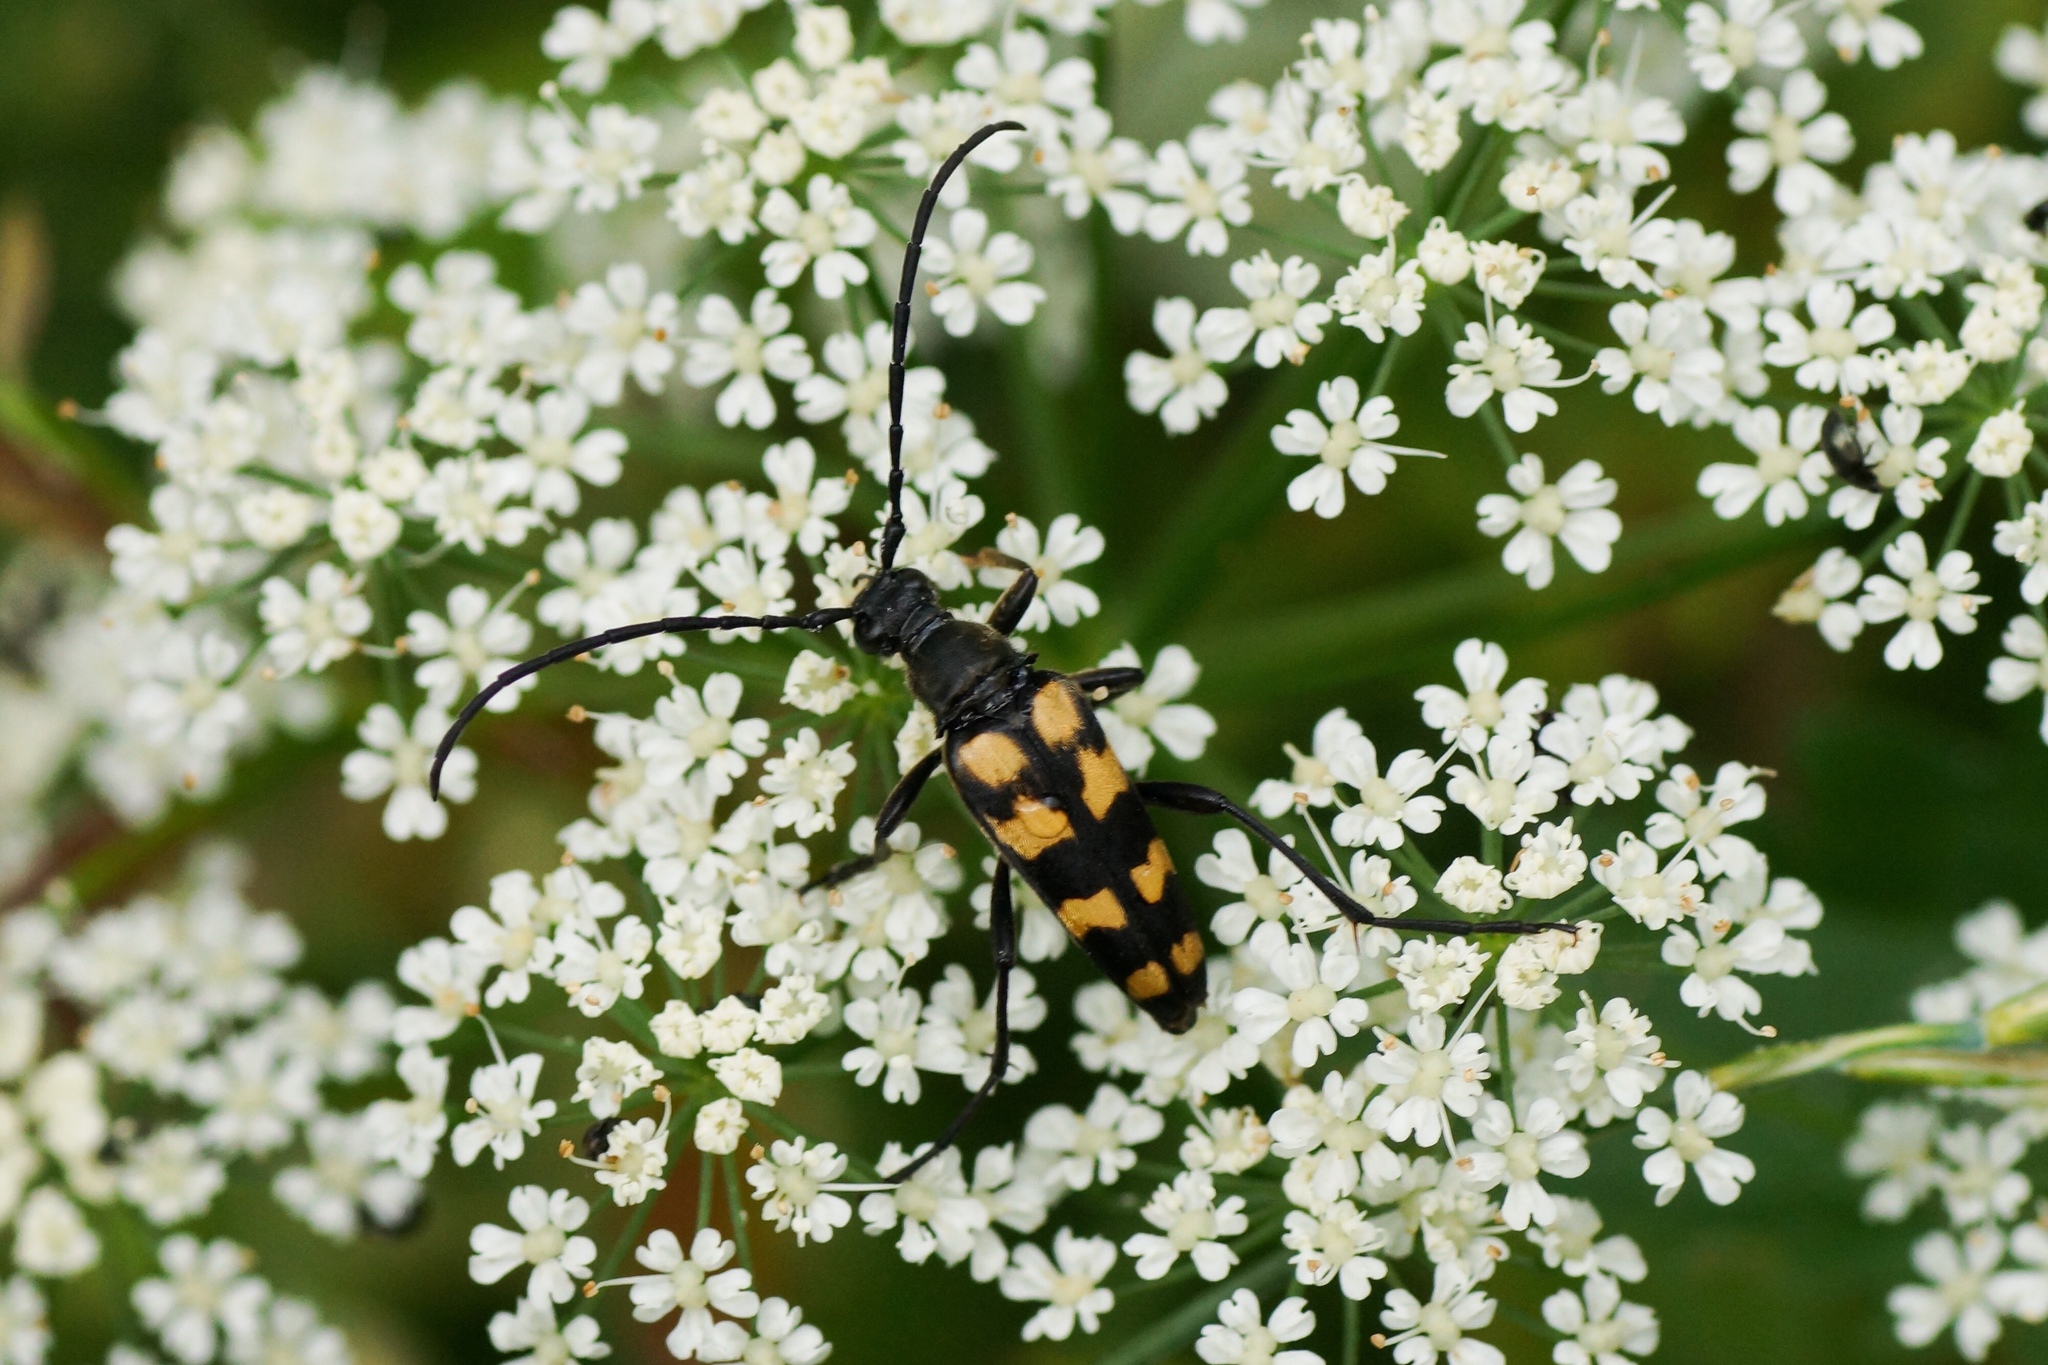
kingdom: Animalia
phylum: Arthropoda
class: Insecta
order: Coleoptera
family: Cerambycidae
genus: Leptura
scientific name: Leptura quadrifasciata
